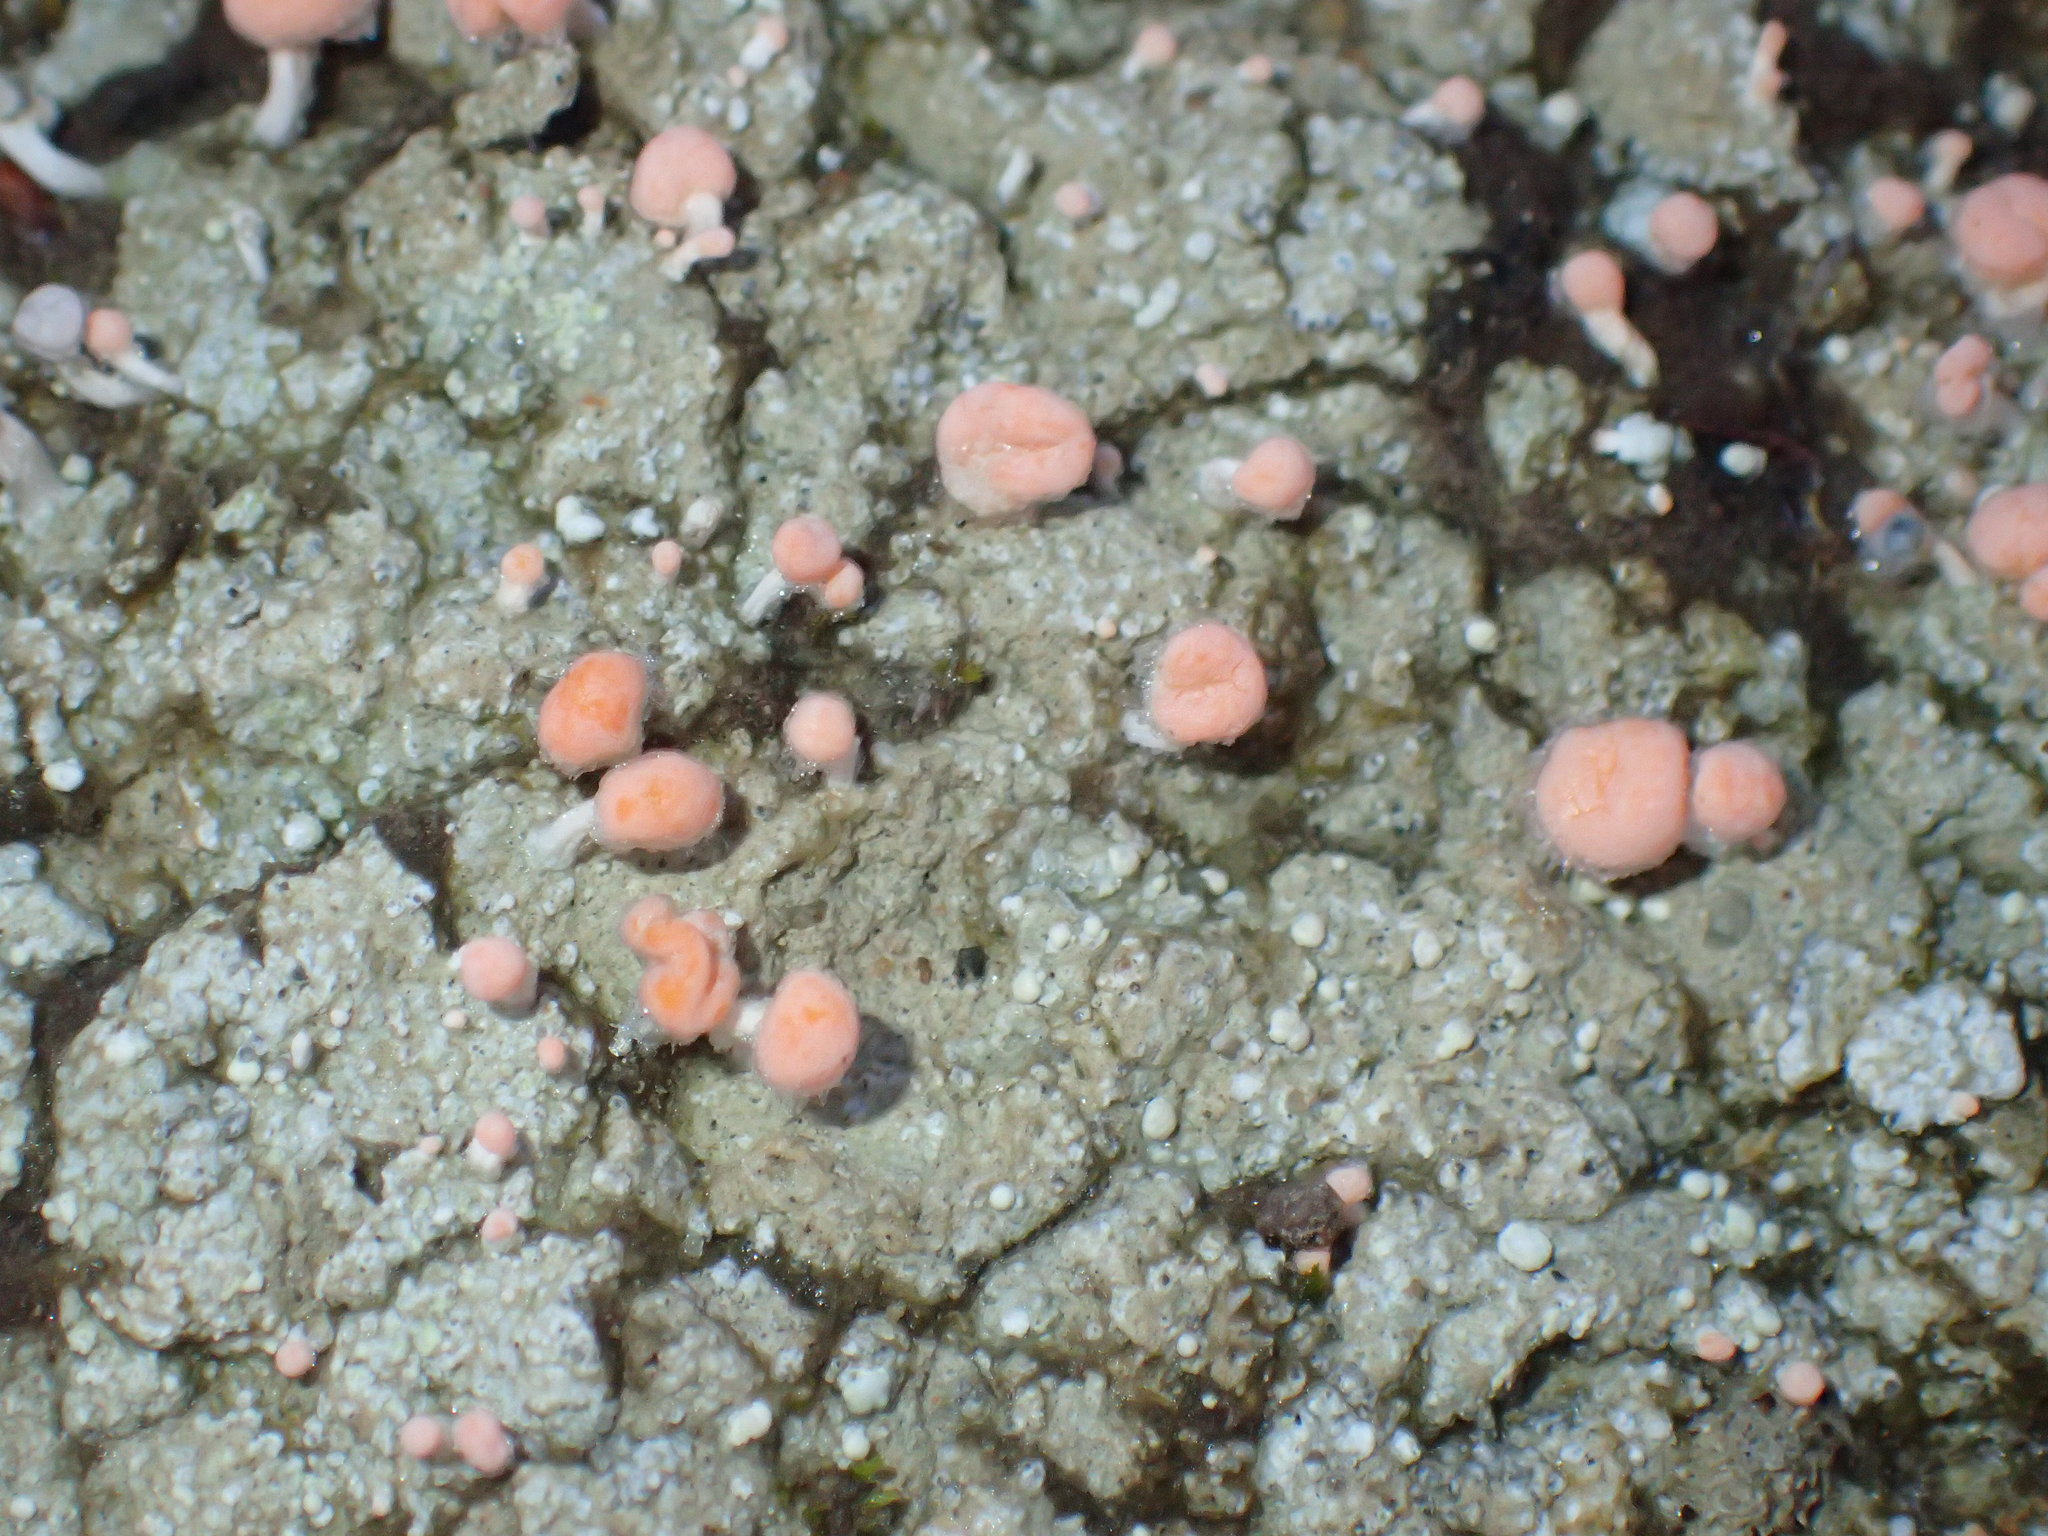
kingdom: Fungi
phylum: Ascomycota
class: Lecanoromycetes
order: Pertusariales
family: Icmadophilaceae
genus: Dibaeis
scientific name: Dibaeis baeomyces
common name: Pink earth lichen
